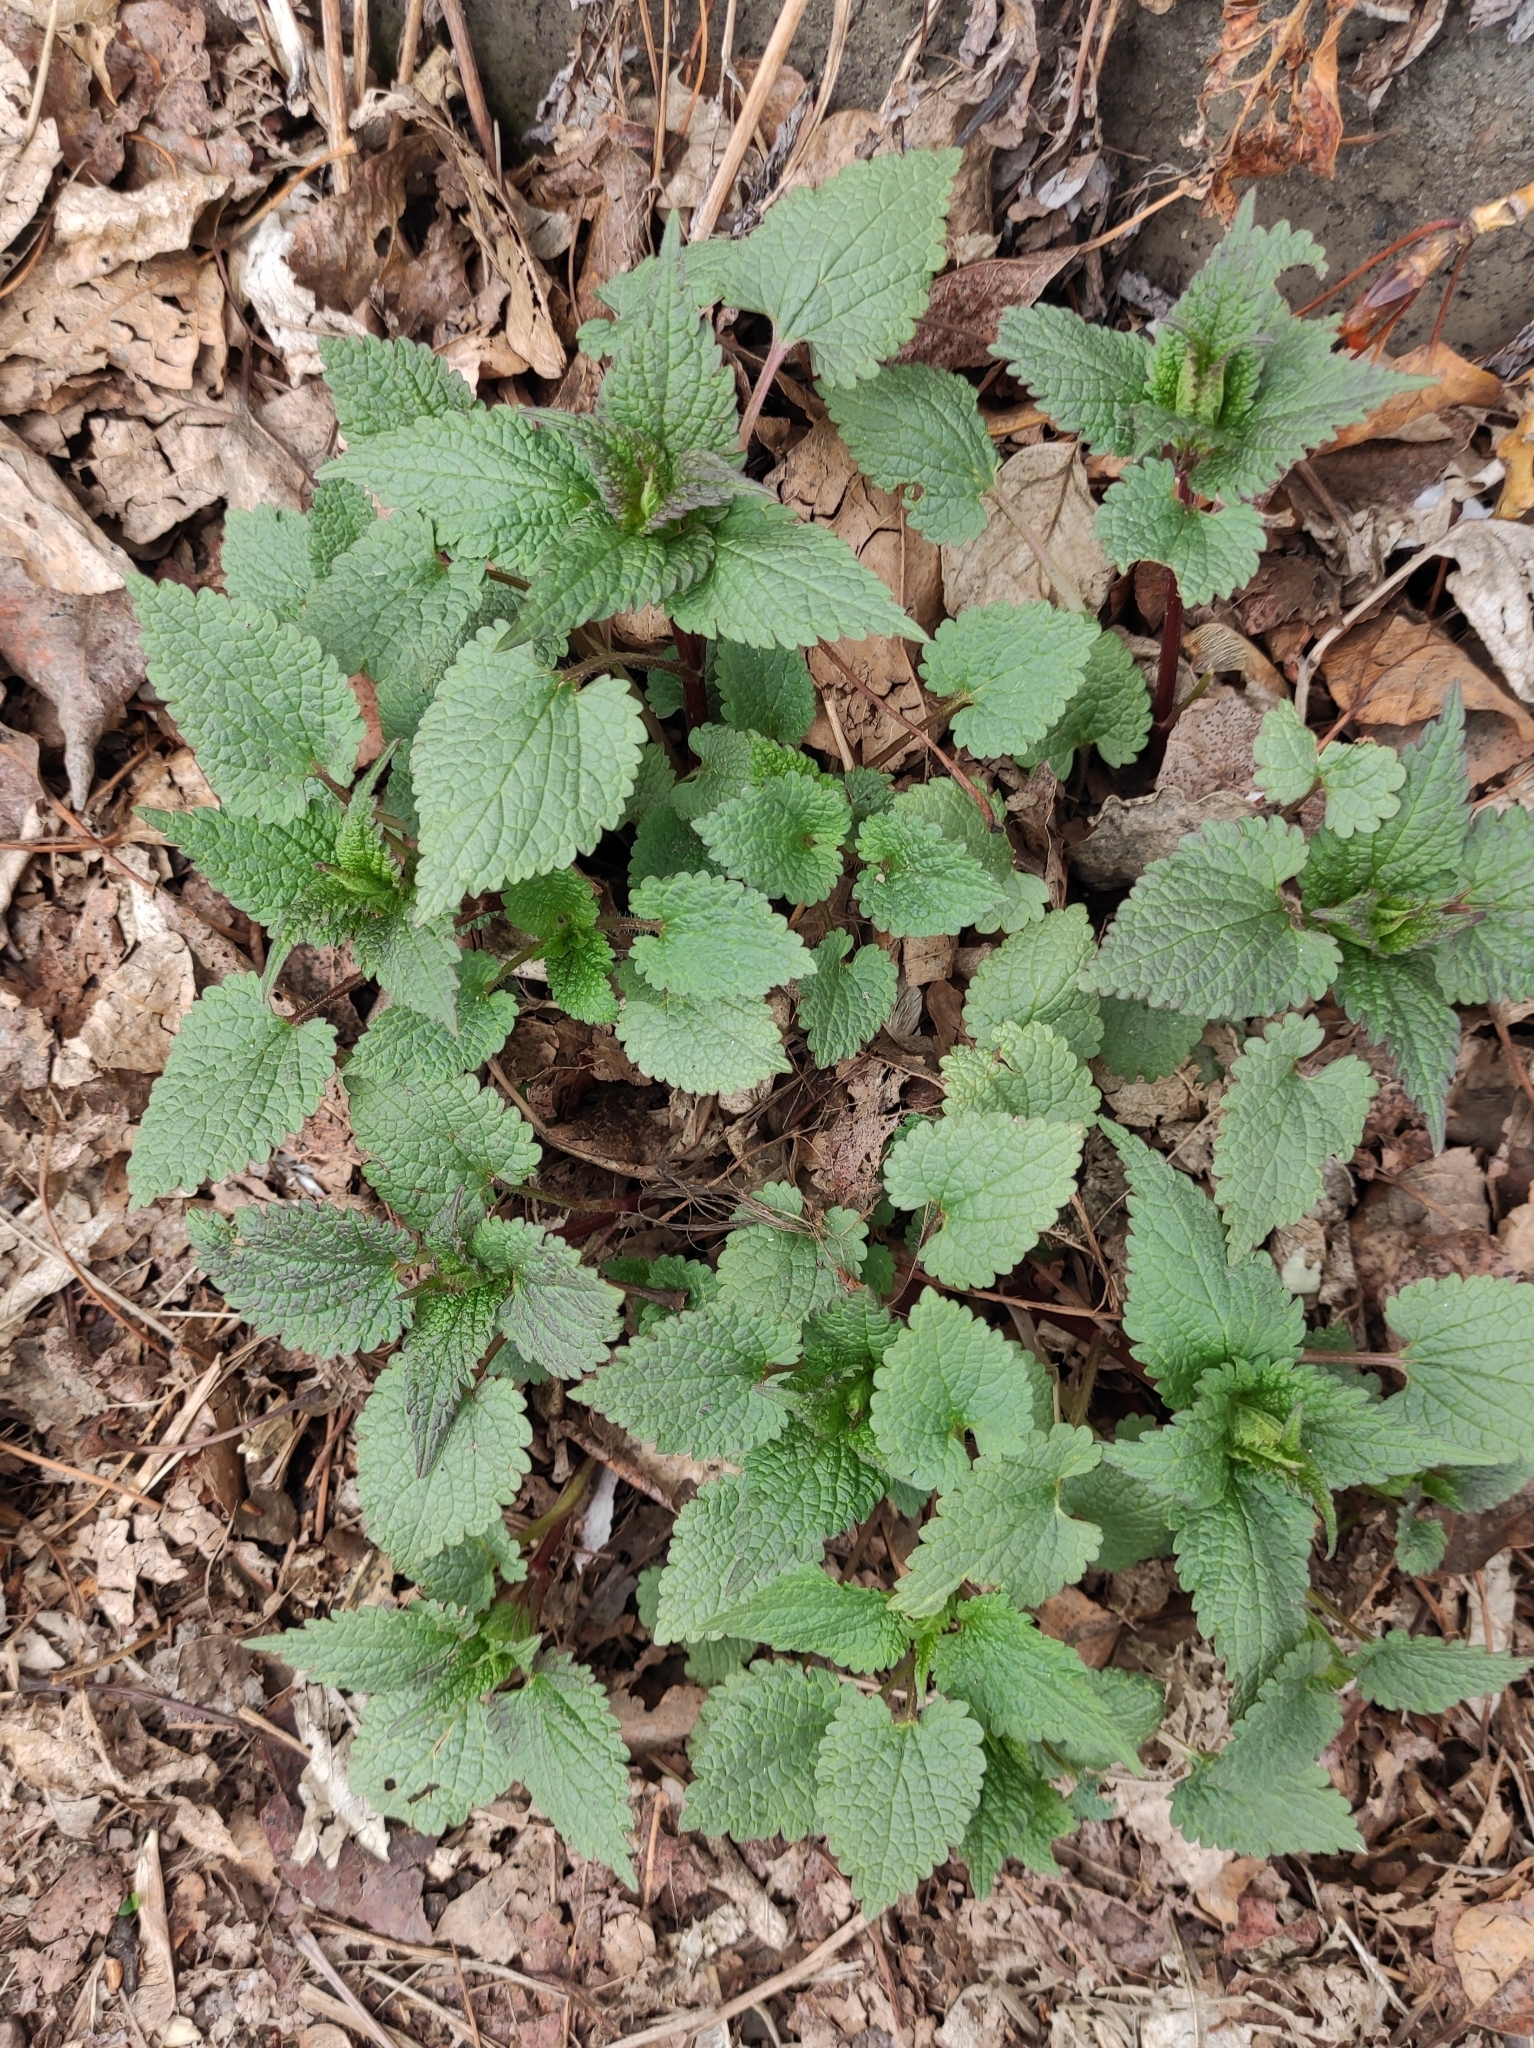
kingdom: Plantae
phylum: Tracheophyta
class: Magnoliopsida
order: Lamiales
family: Lamiaceae
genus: Lamium
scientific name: Lamium album
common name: White dead-nettle
